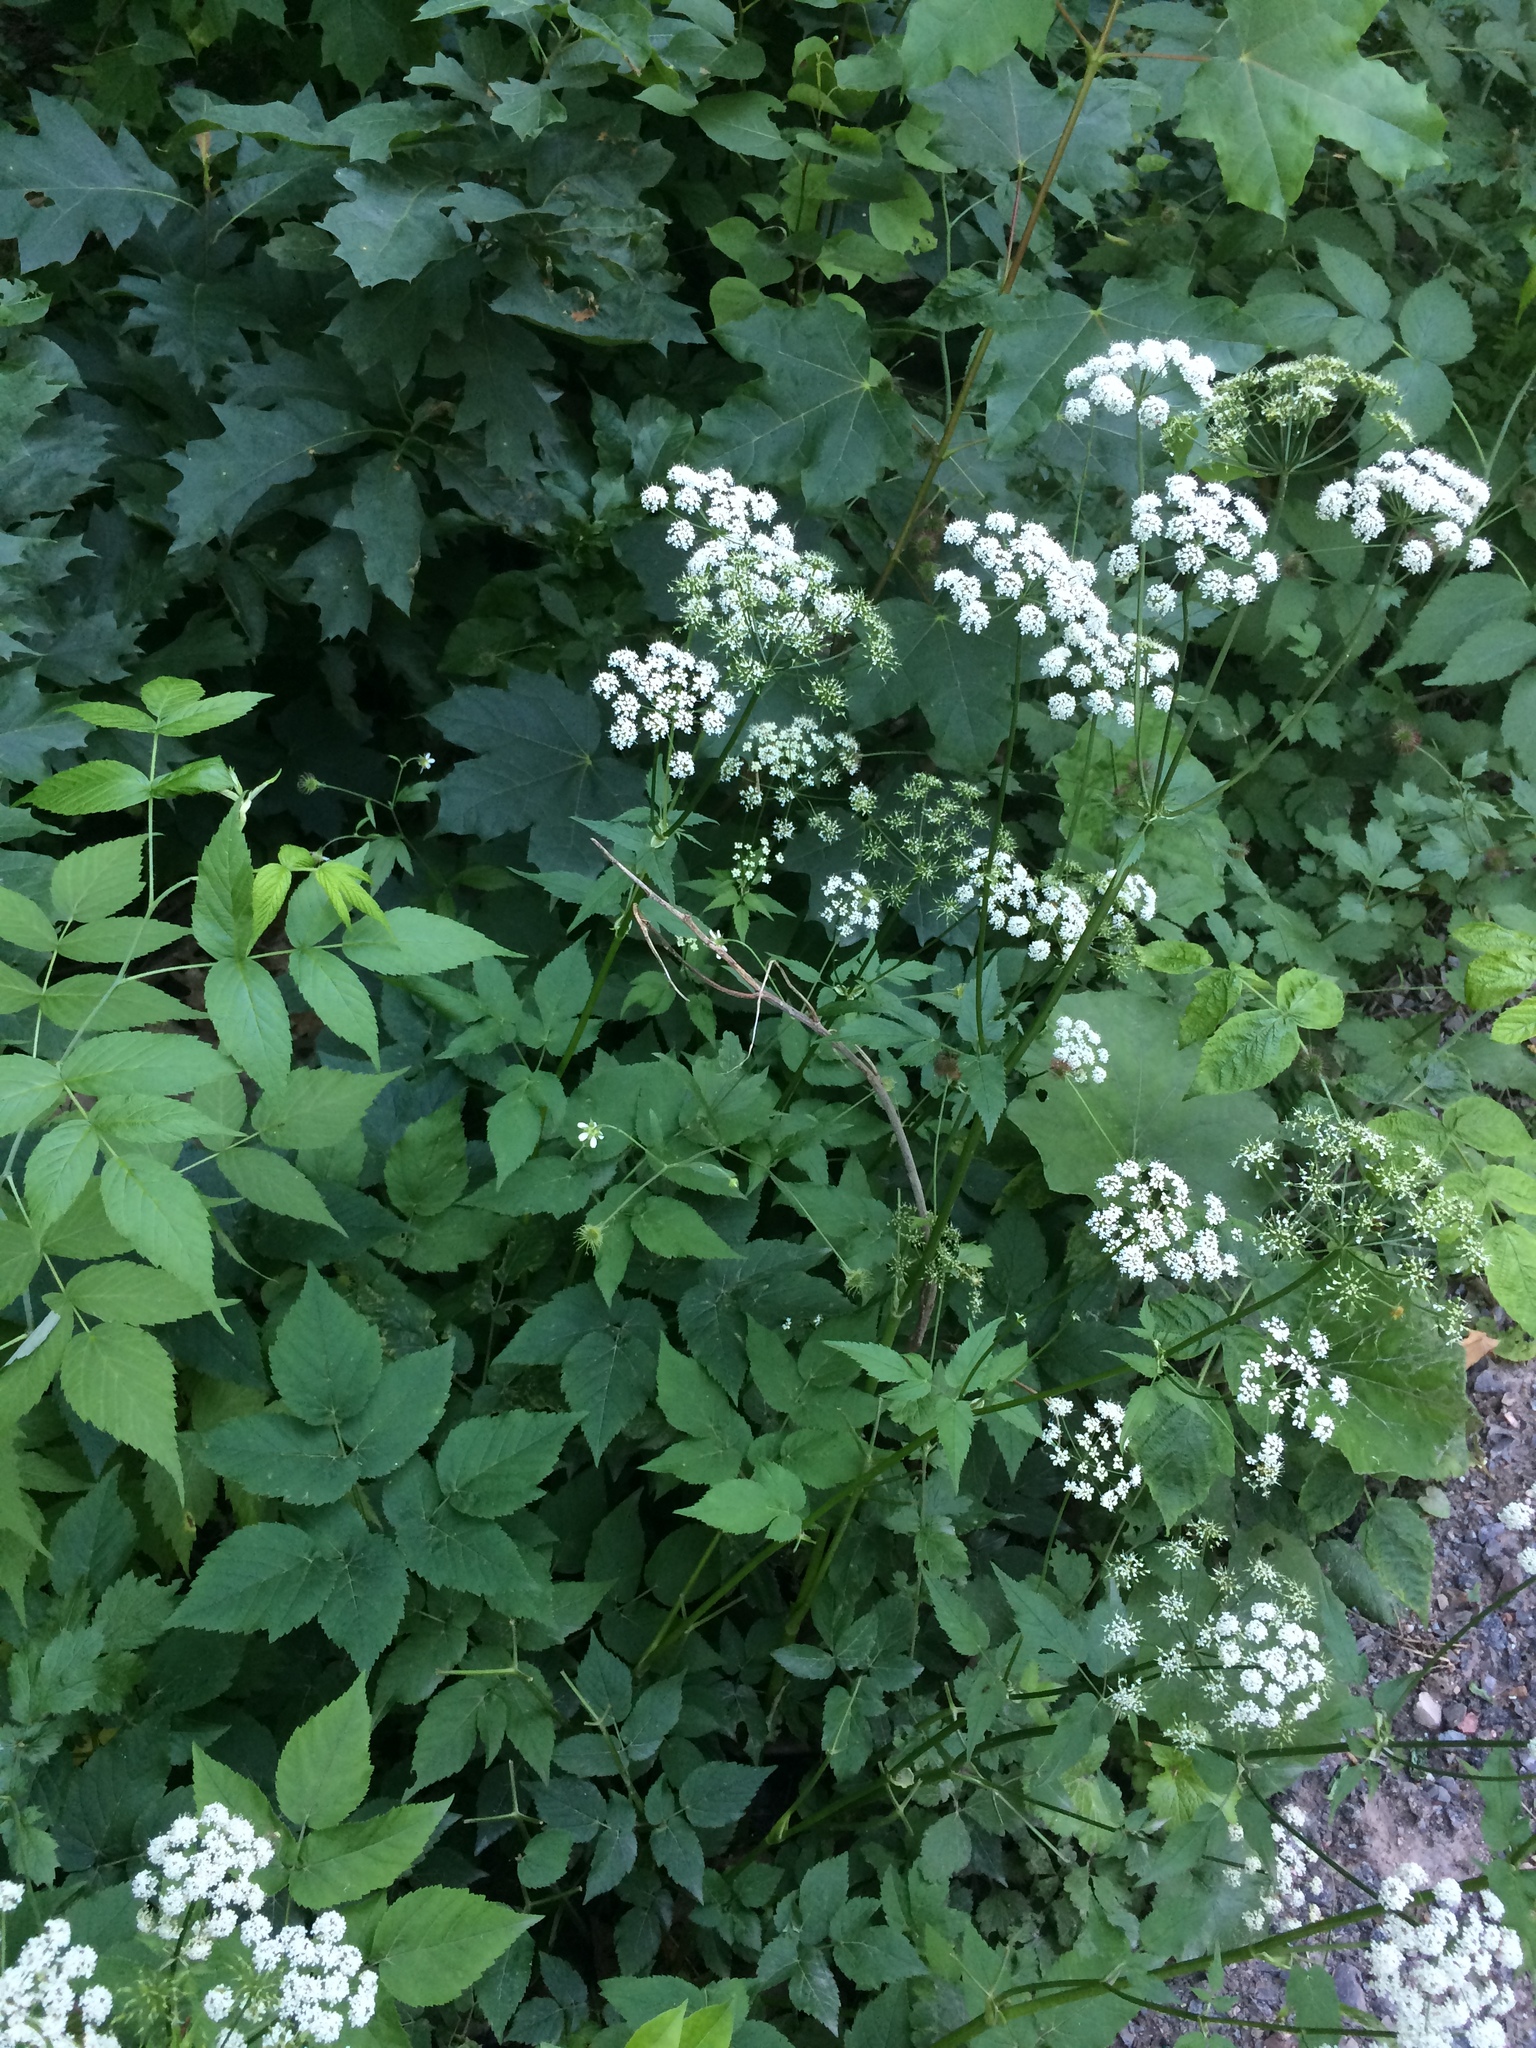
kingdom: Plantae
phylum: Tracheophyta
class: Magnoliopsida
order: Apiales
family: Apiaceae
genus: Aegopodium
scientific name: Aegopodium podagraria
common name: Ground-elder
